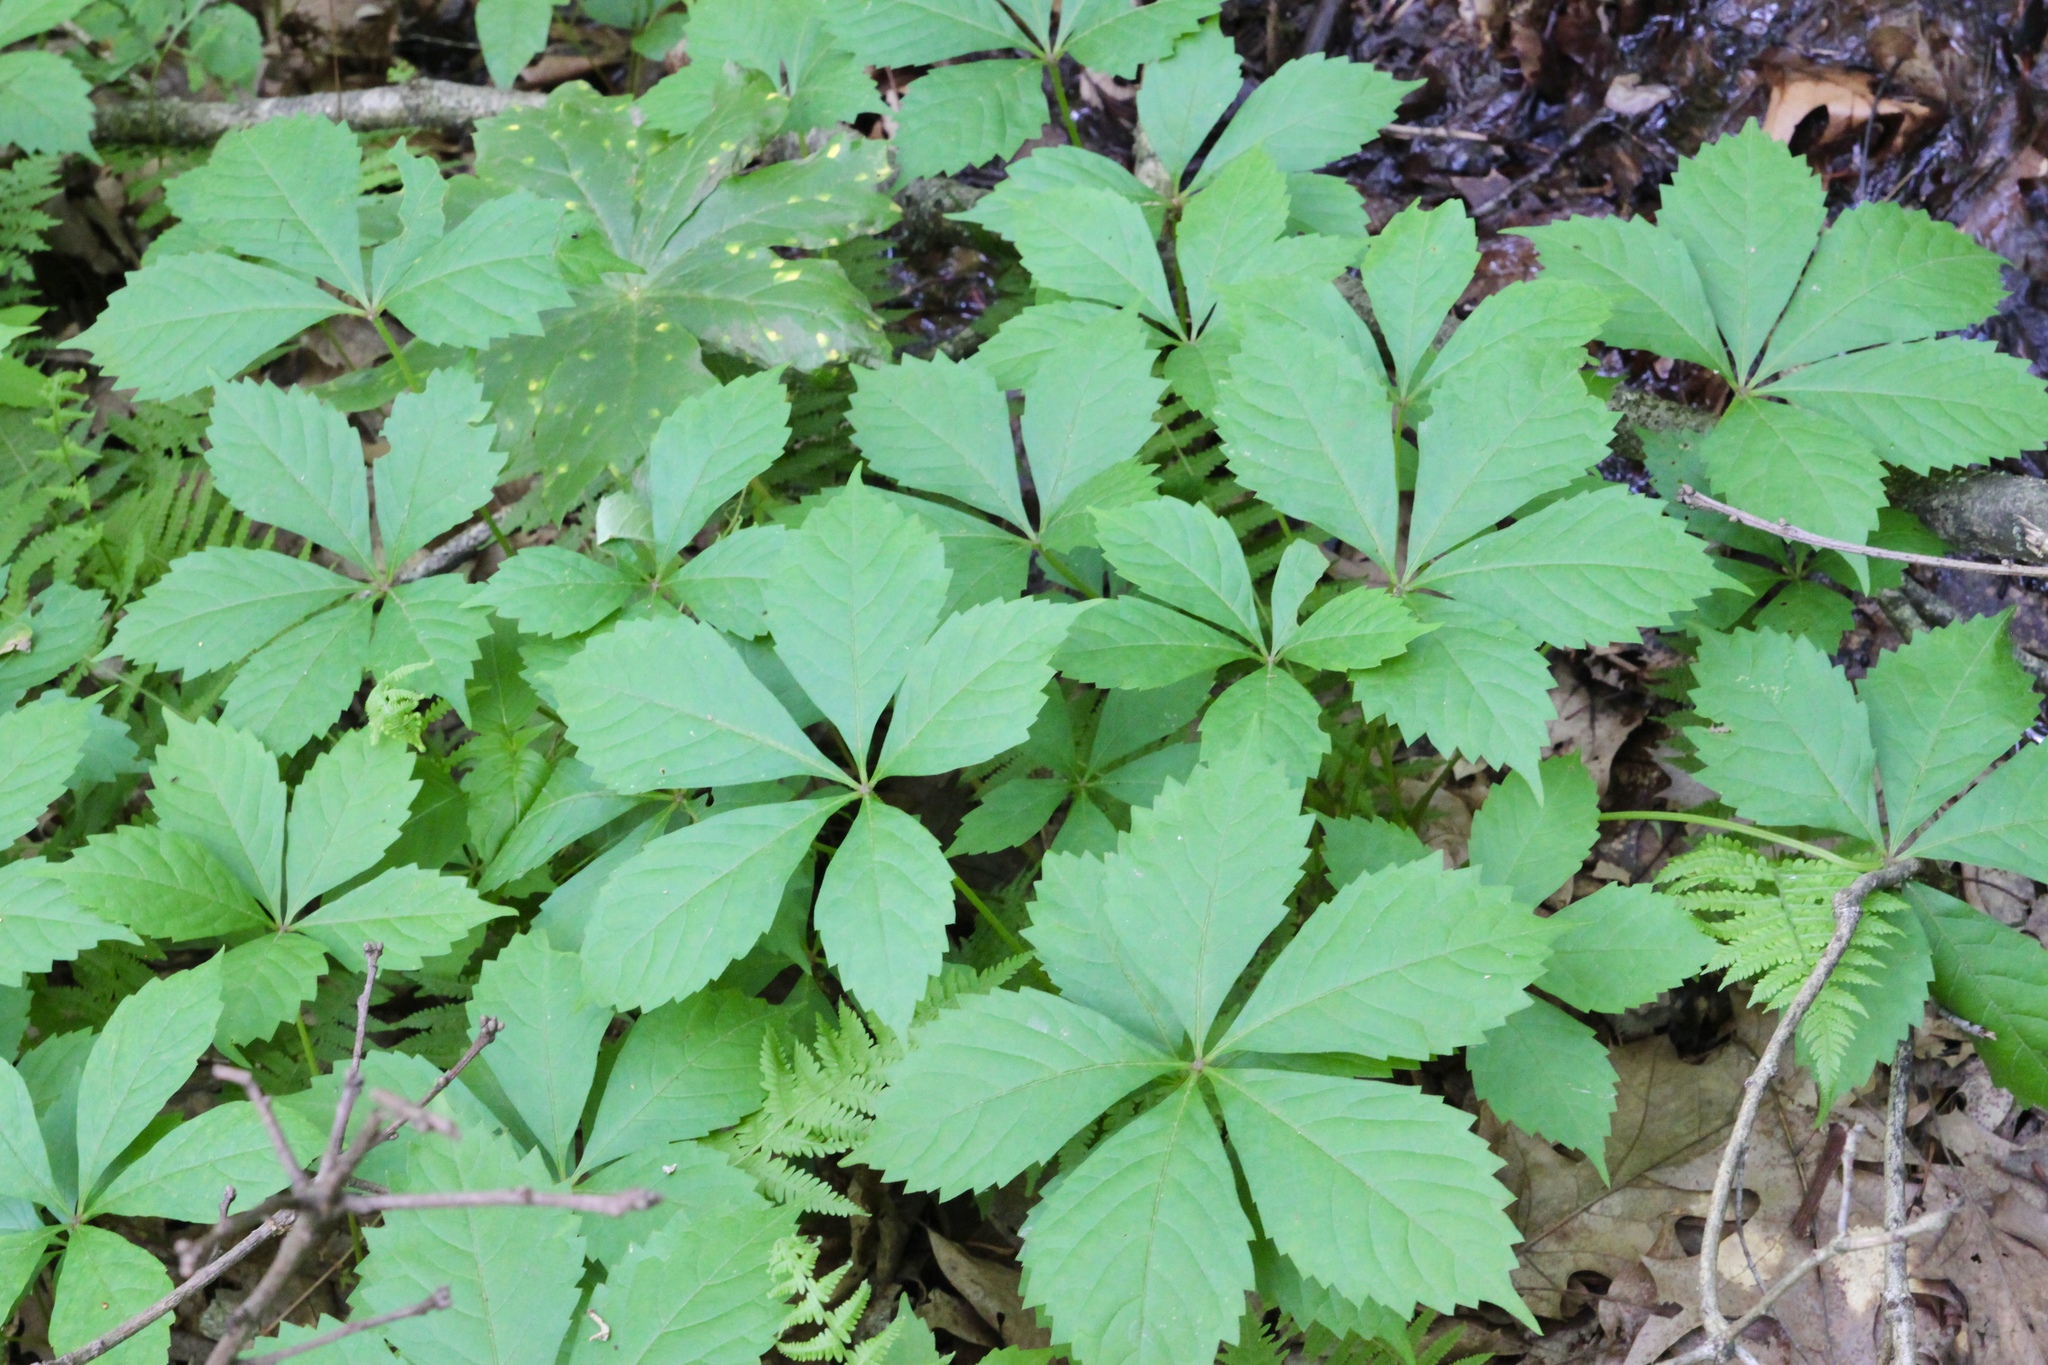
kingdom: Plantae
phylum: Tracheophyta
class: Magnoliopsida
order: Vitales
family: Vitaceae
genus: Parthenocissus
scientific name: Parthenocissus quinquefolia
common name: Virginia-creeper
